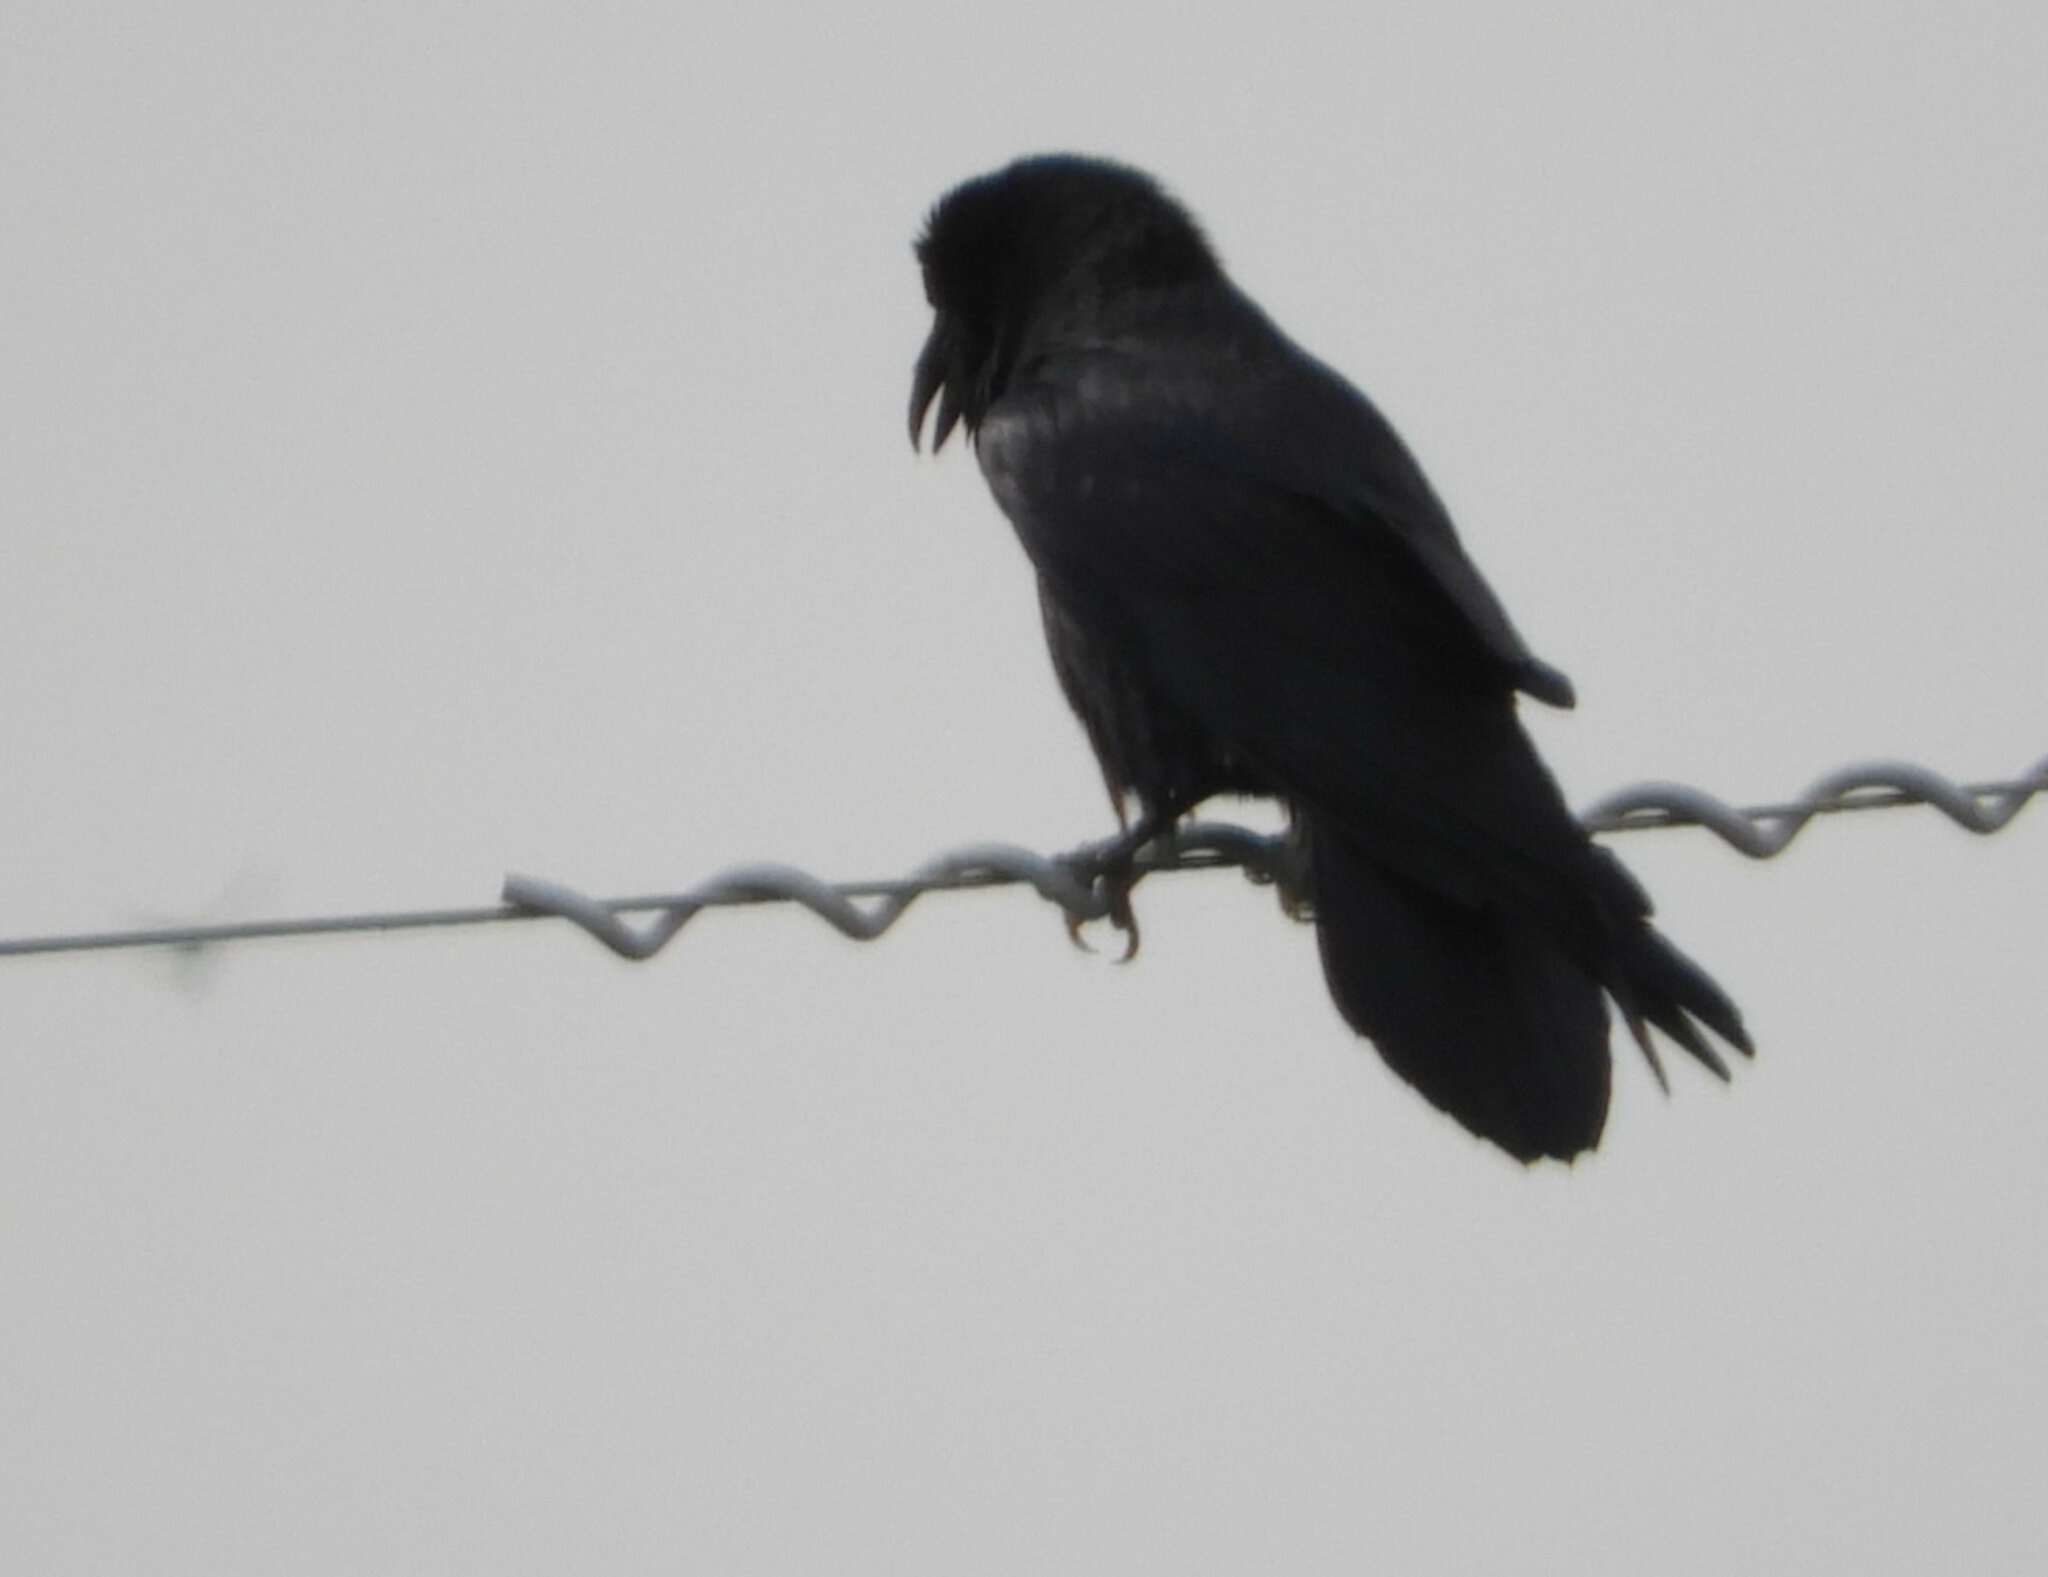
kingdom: Animalia
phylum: Chordata
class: Aves
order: Passeriformes
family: Corvidae
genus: Corvus
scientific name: Corvus corax
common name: Common raven
